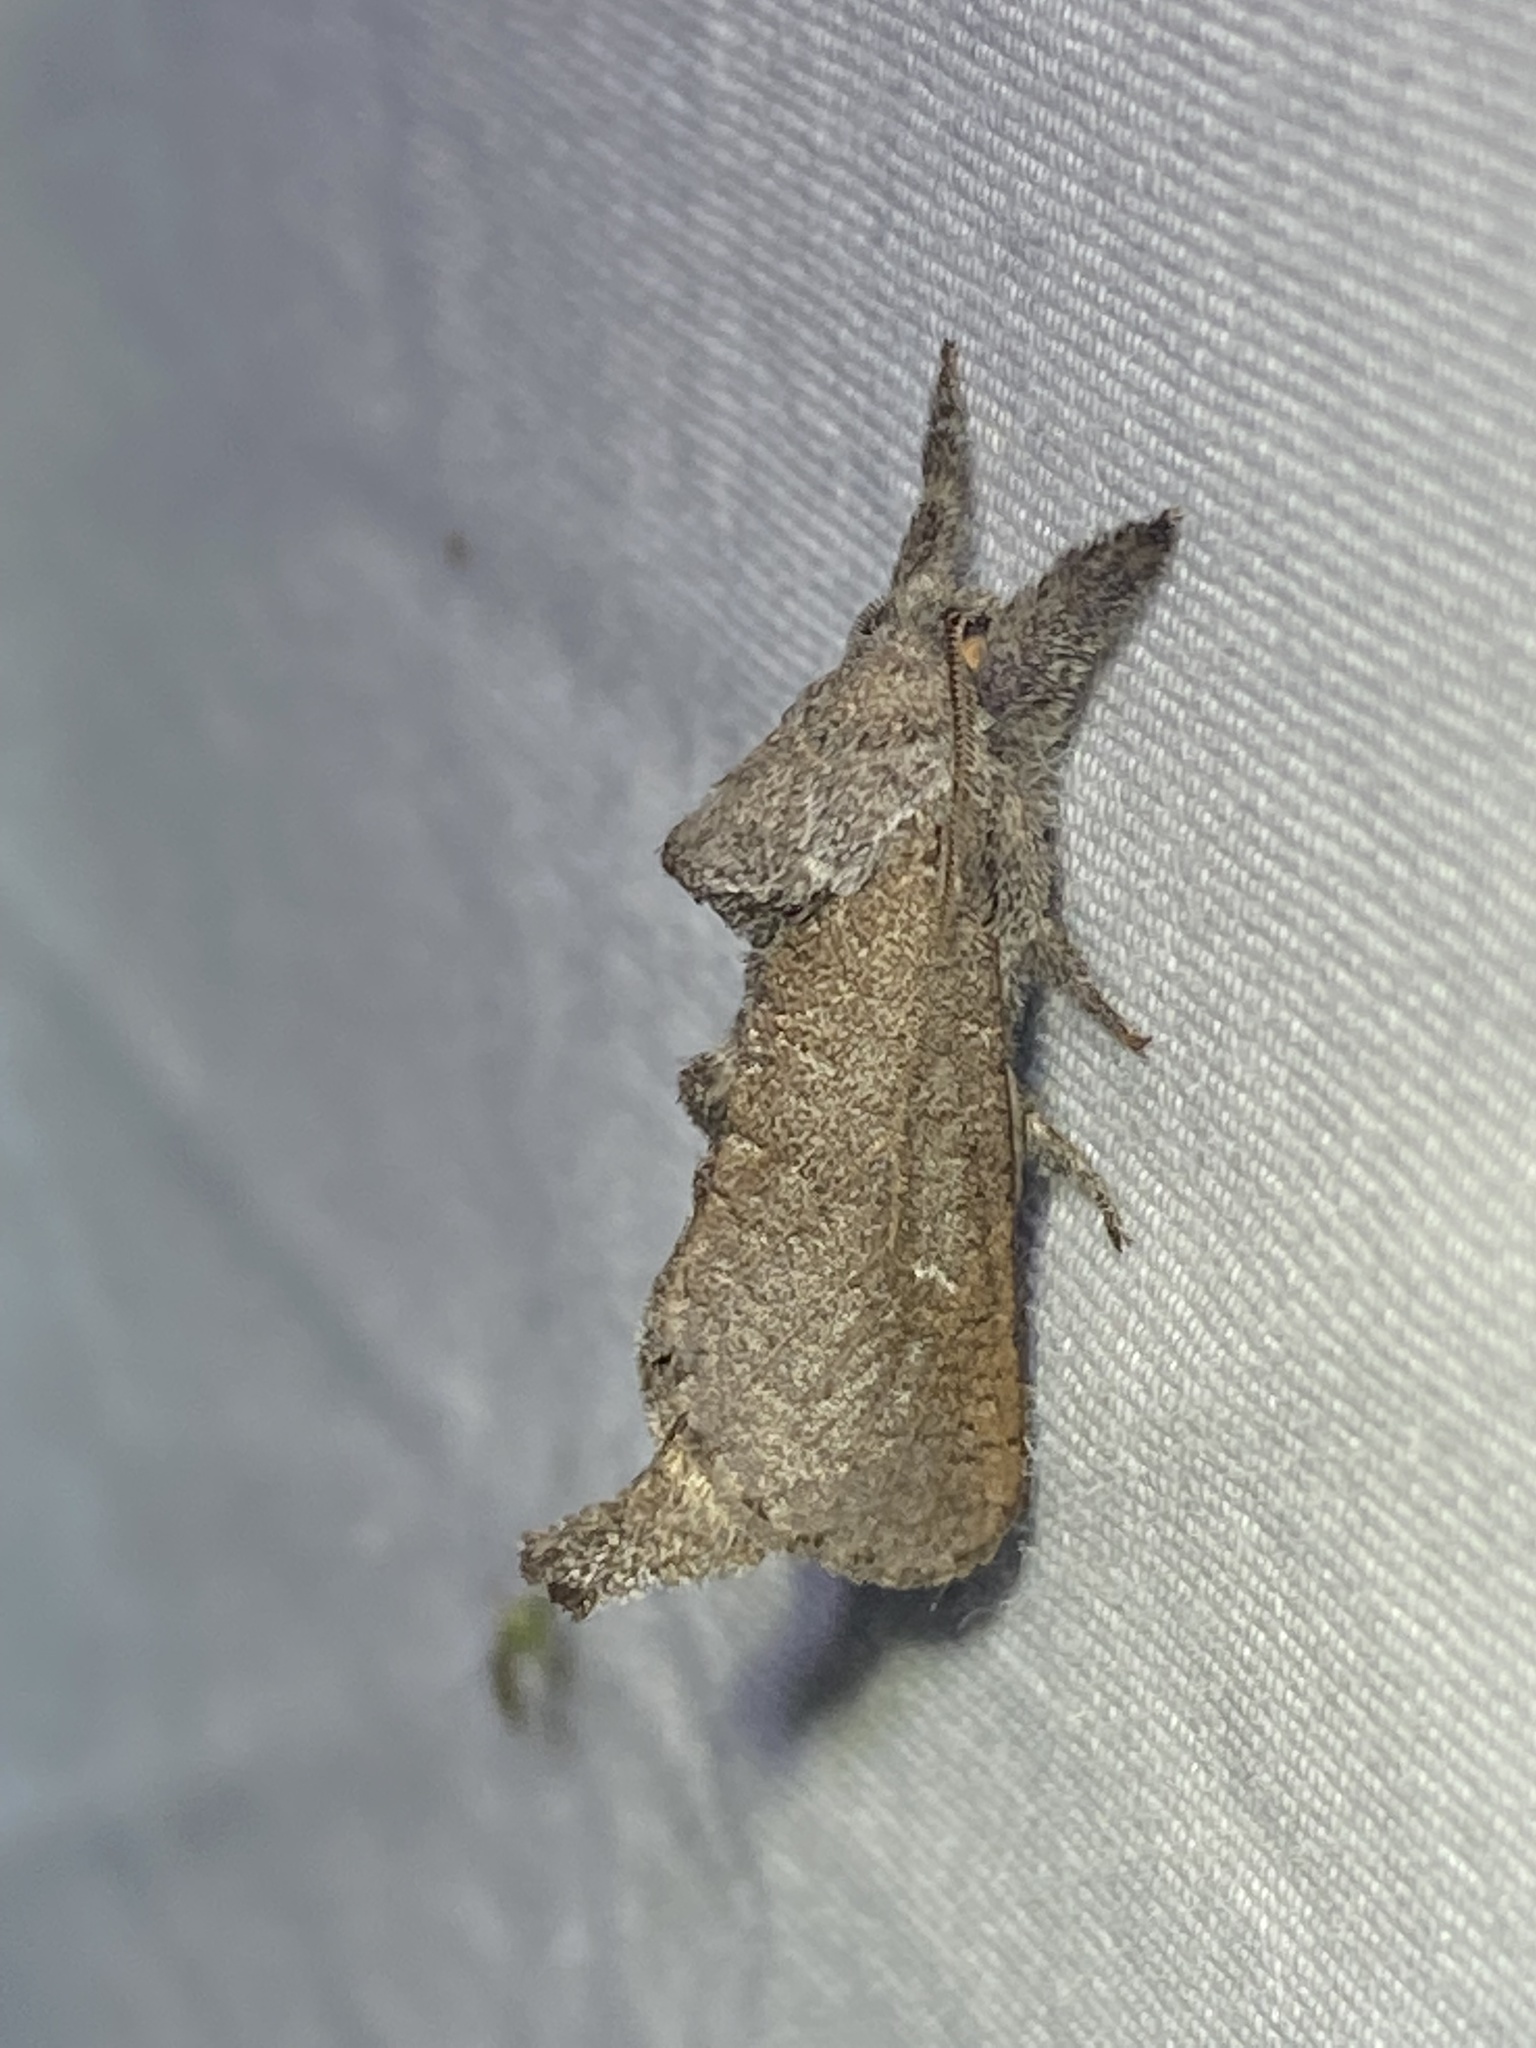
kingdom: Animalia
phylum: Arthropoda
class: Insecta
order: Lepidoptera
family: Cossidae
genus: Givira
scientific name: Givira anna
